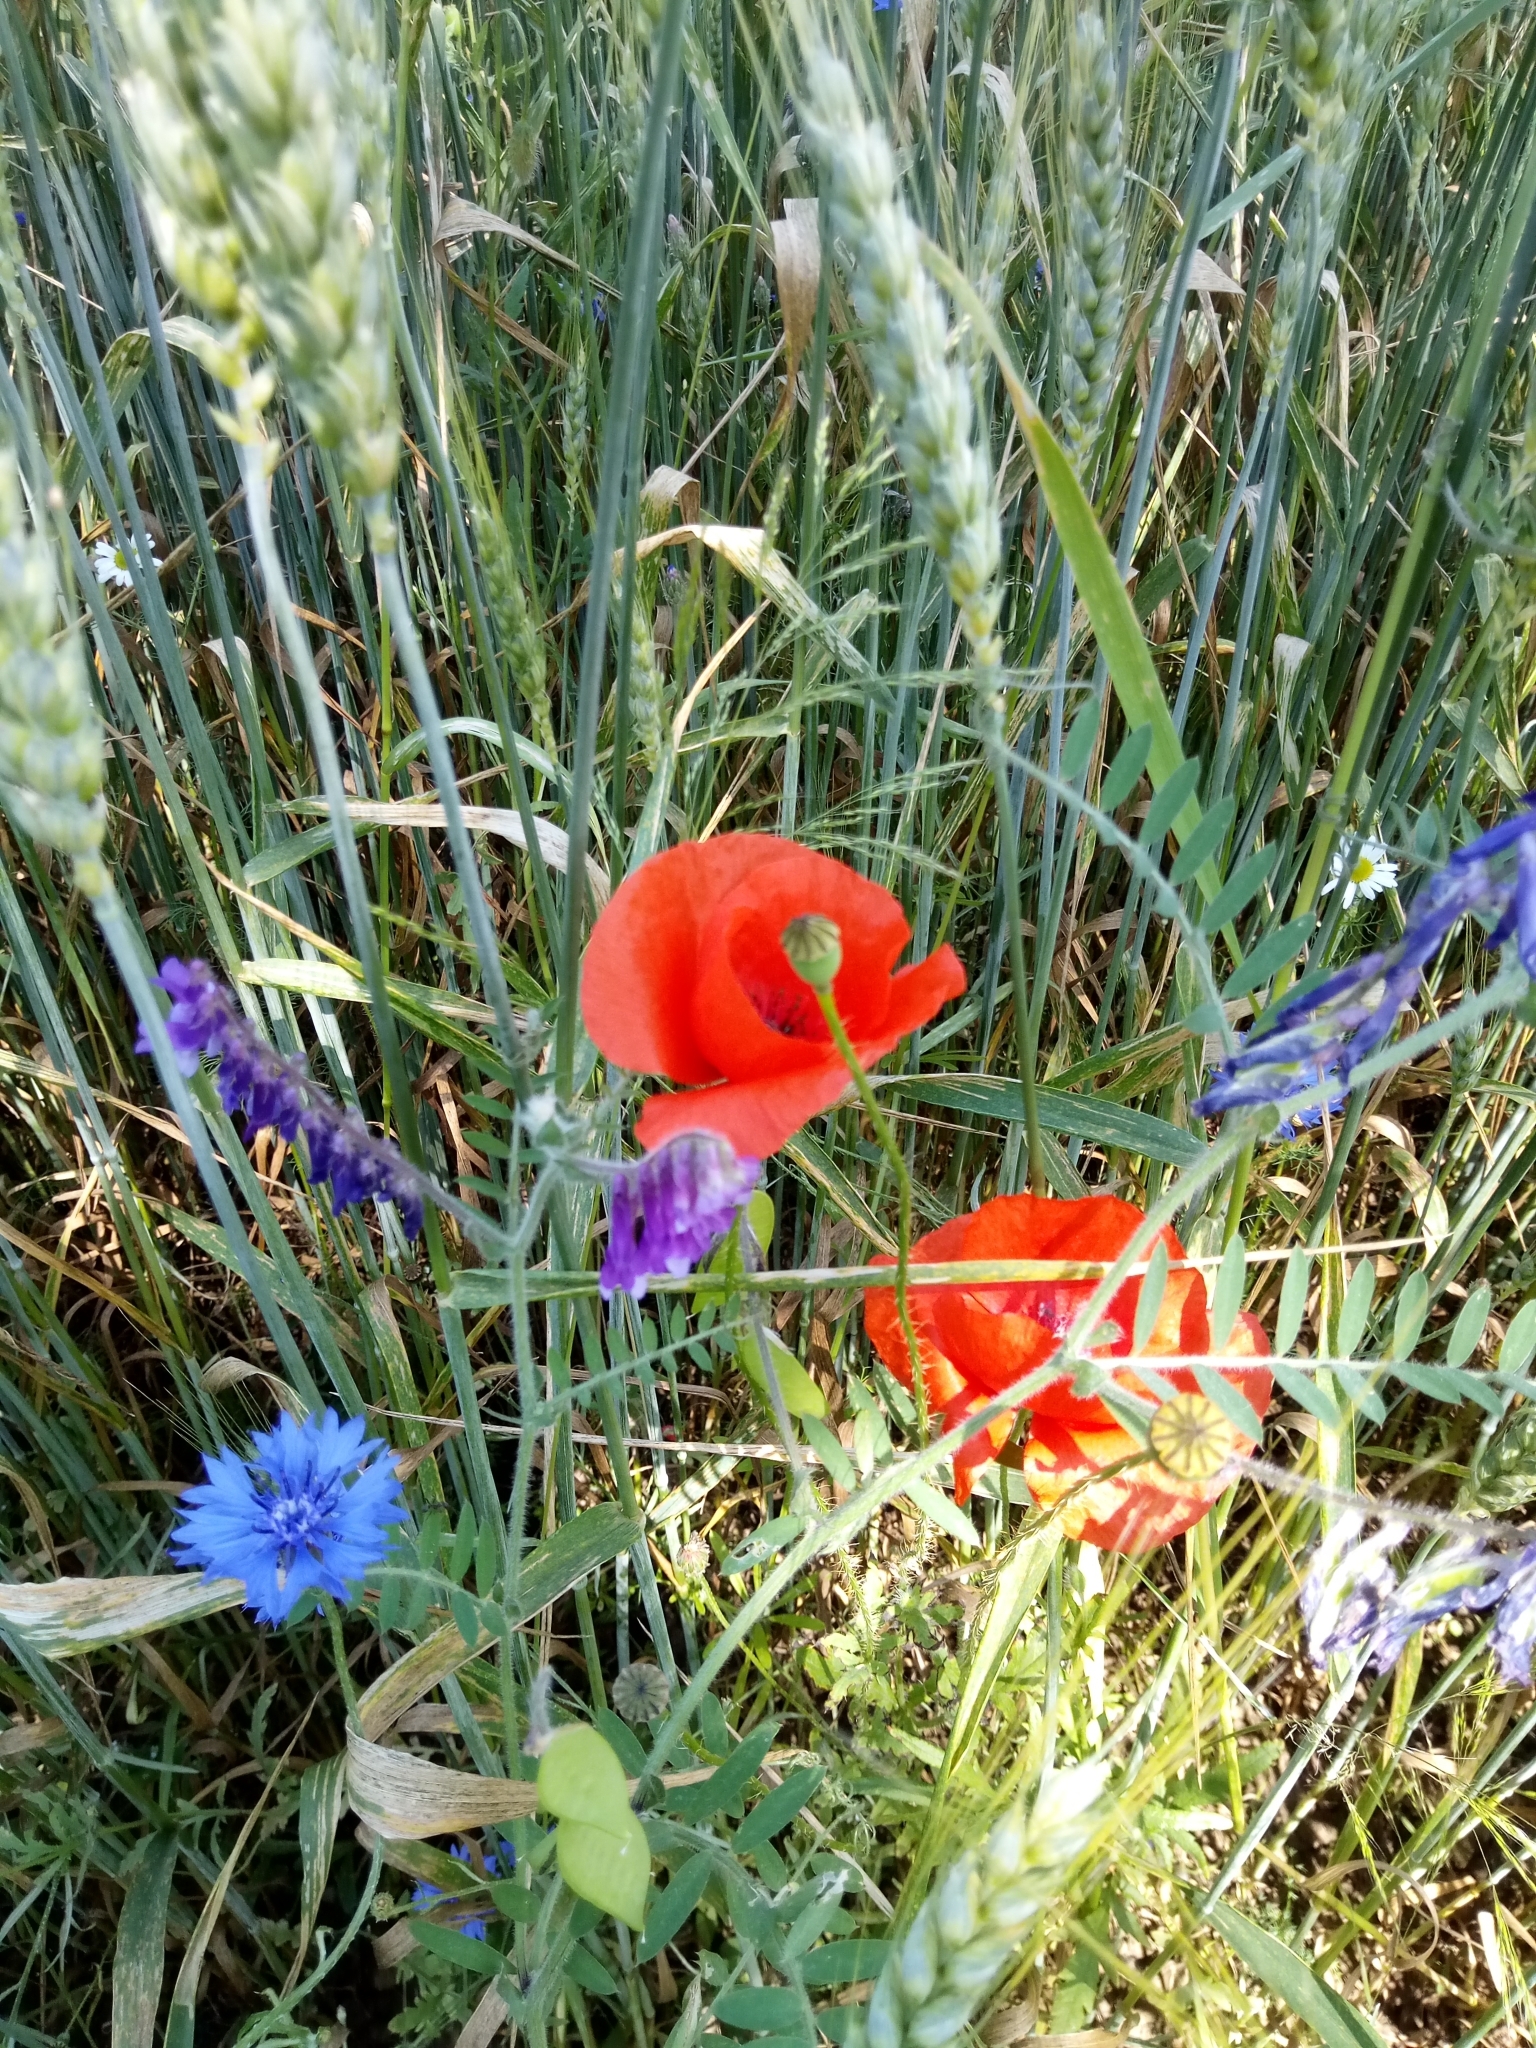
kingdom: Plantae
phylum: Tracheophyta
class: Magnoliopsida
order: Ranunculales
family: Papaveraceae
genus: Papaver
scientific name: Papaver rhoeas
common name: Corn poppy
